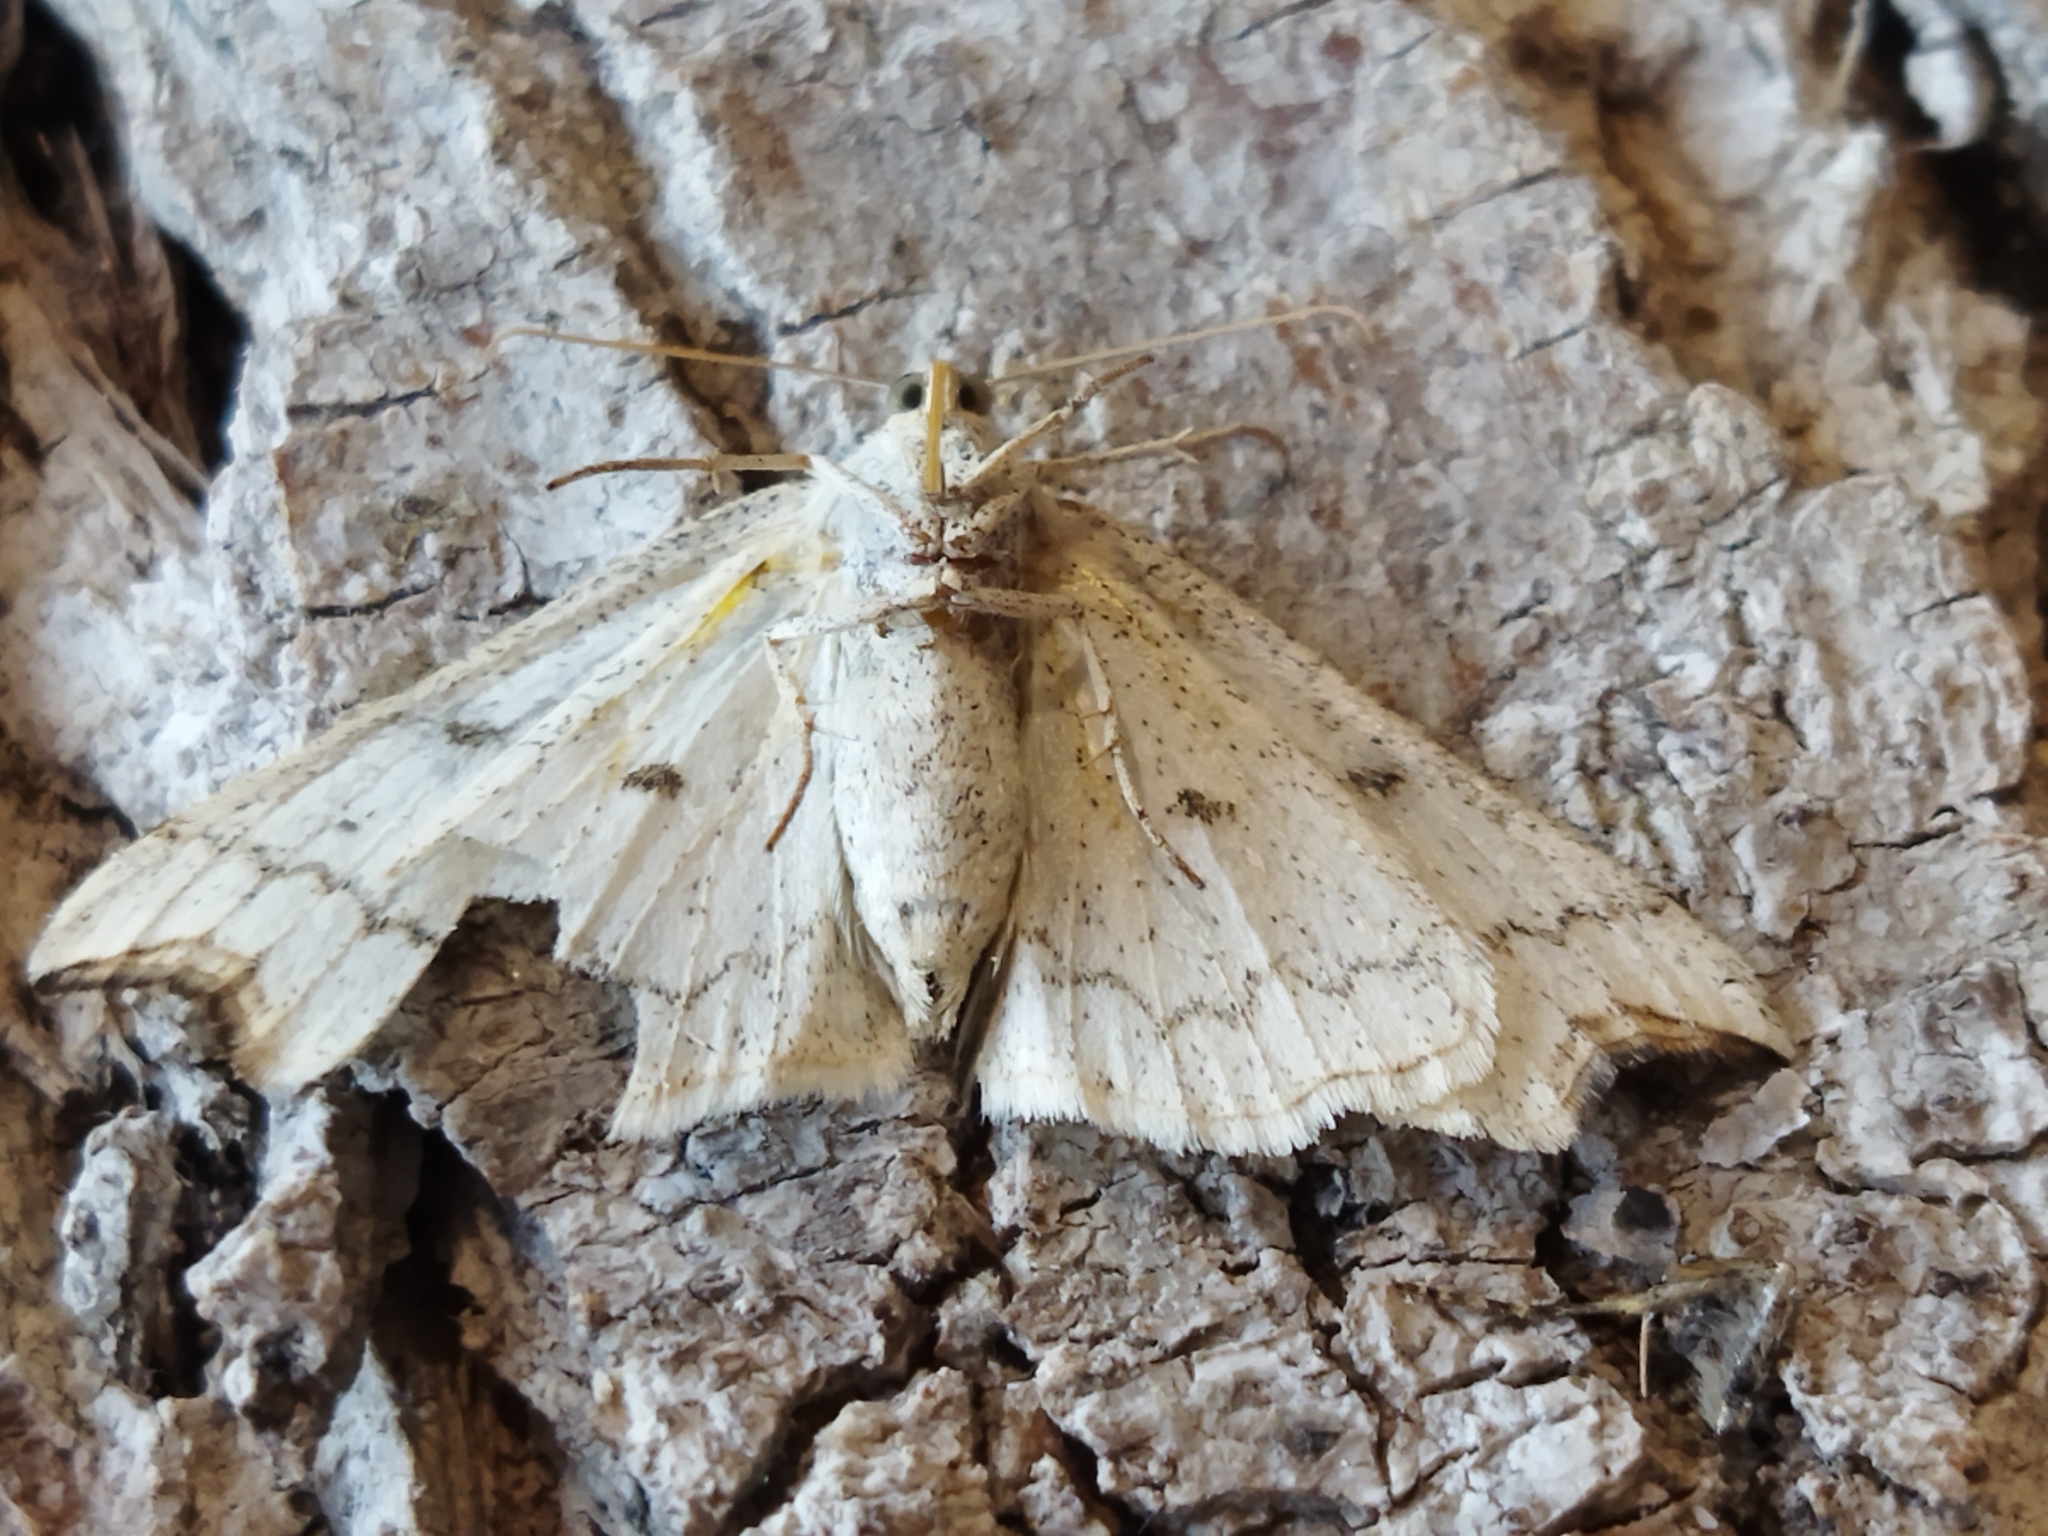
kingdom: Animalia
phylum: Arthropoda
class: Insecta
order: Lepidoptera
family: Geometridae
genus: Eilicrinia
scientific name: Eilicrinia cordiaria
